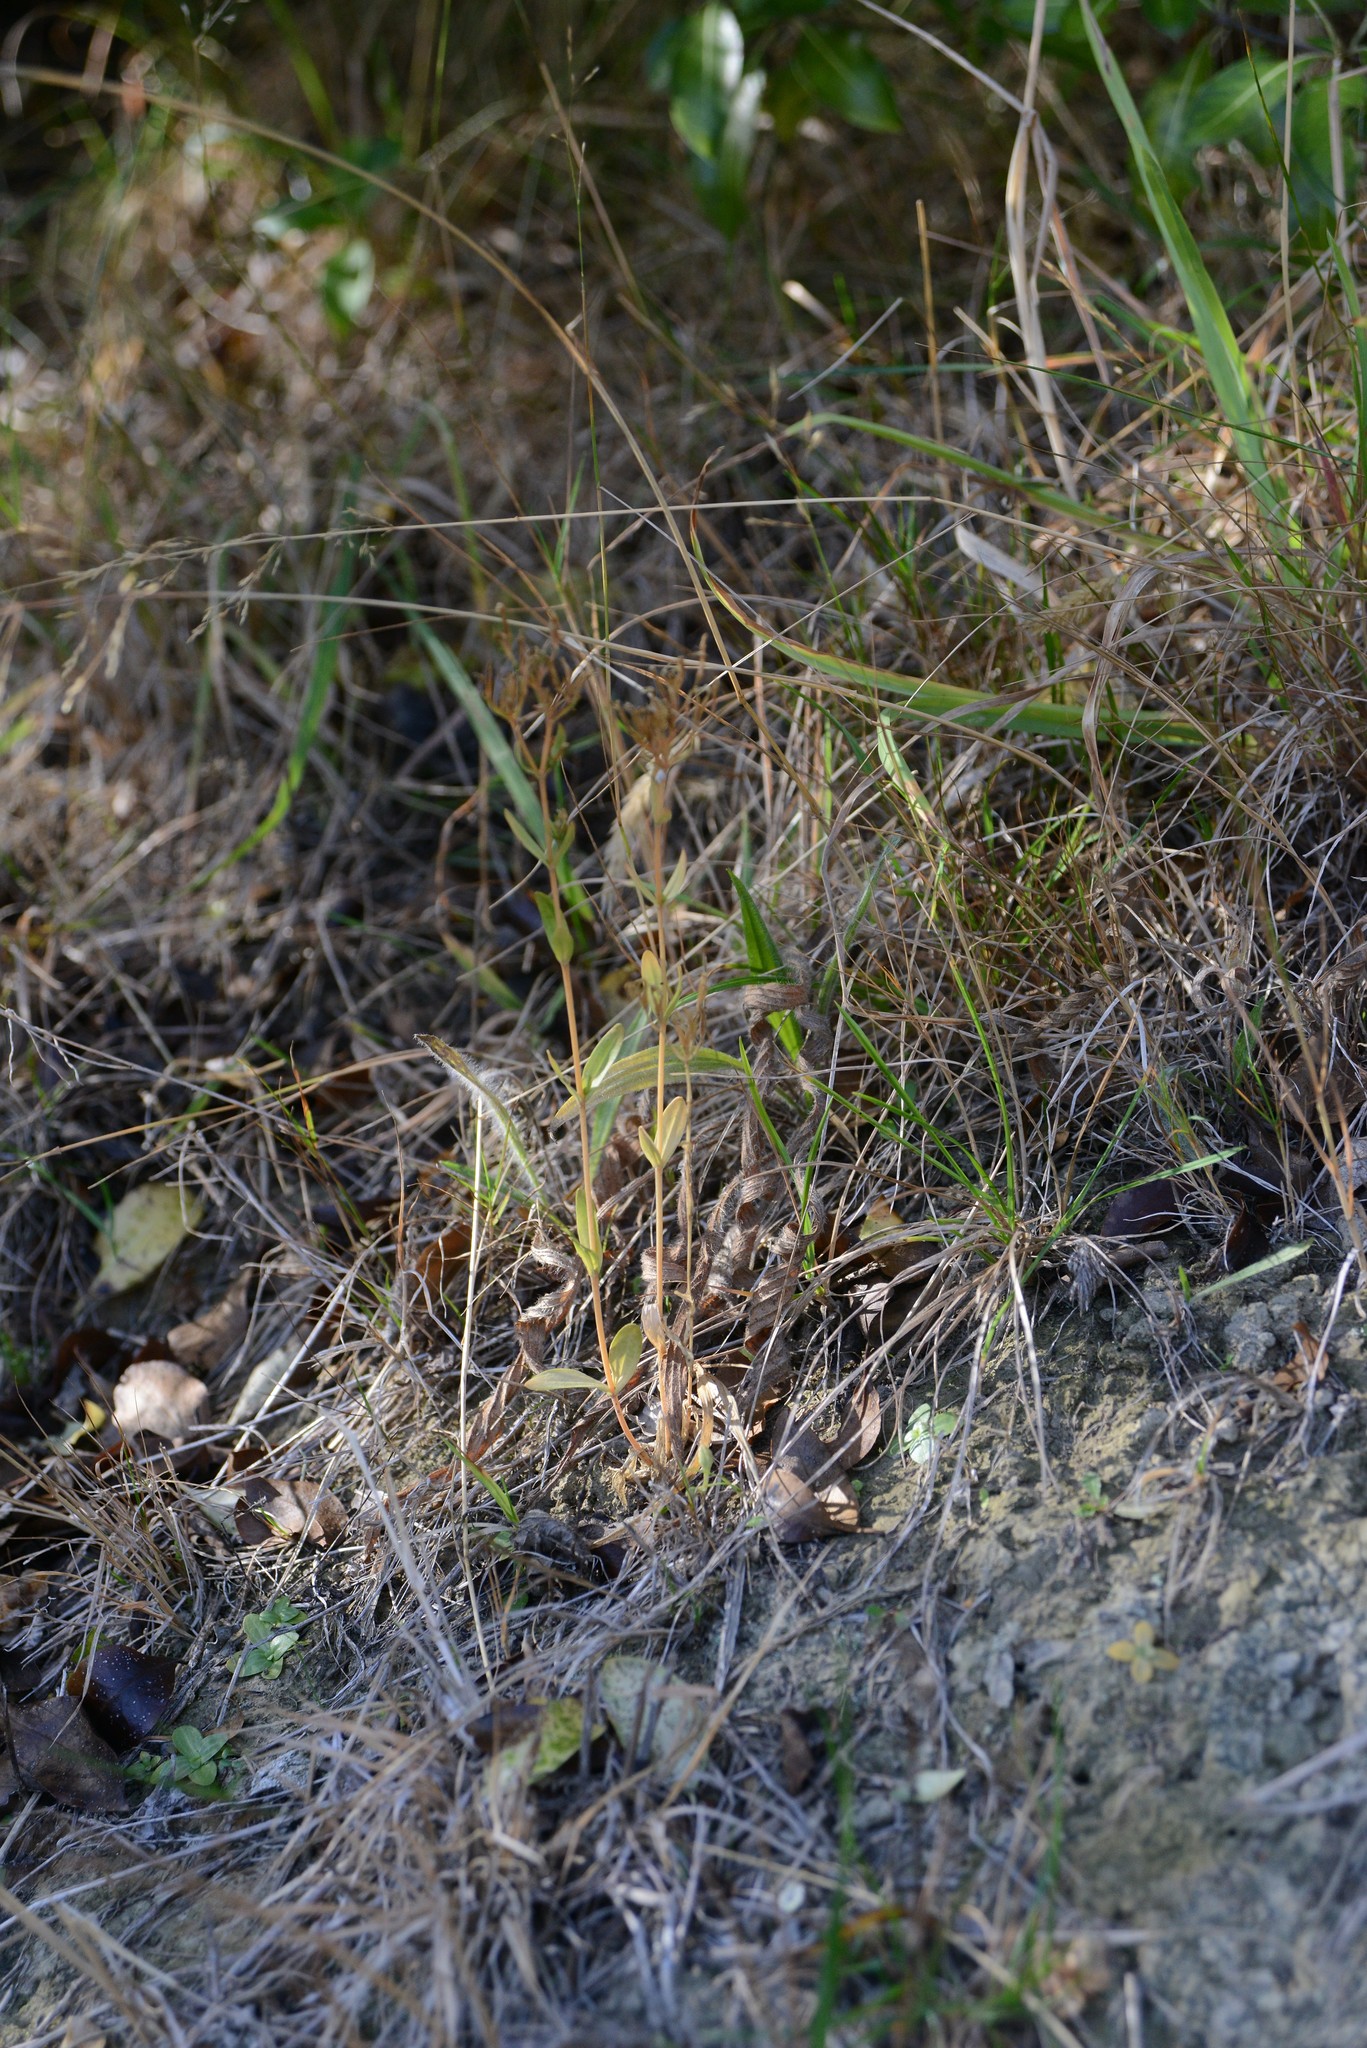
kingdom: Plantae
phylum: Tracheophyta
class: Magnoliopsida
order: Gentianales
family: Gentianaceae
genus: Centaurium
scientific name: Centaurium erythraea
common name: Common centaury
